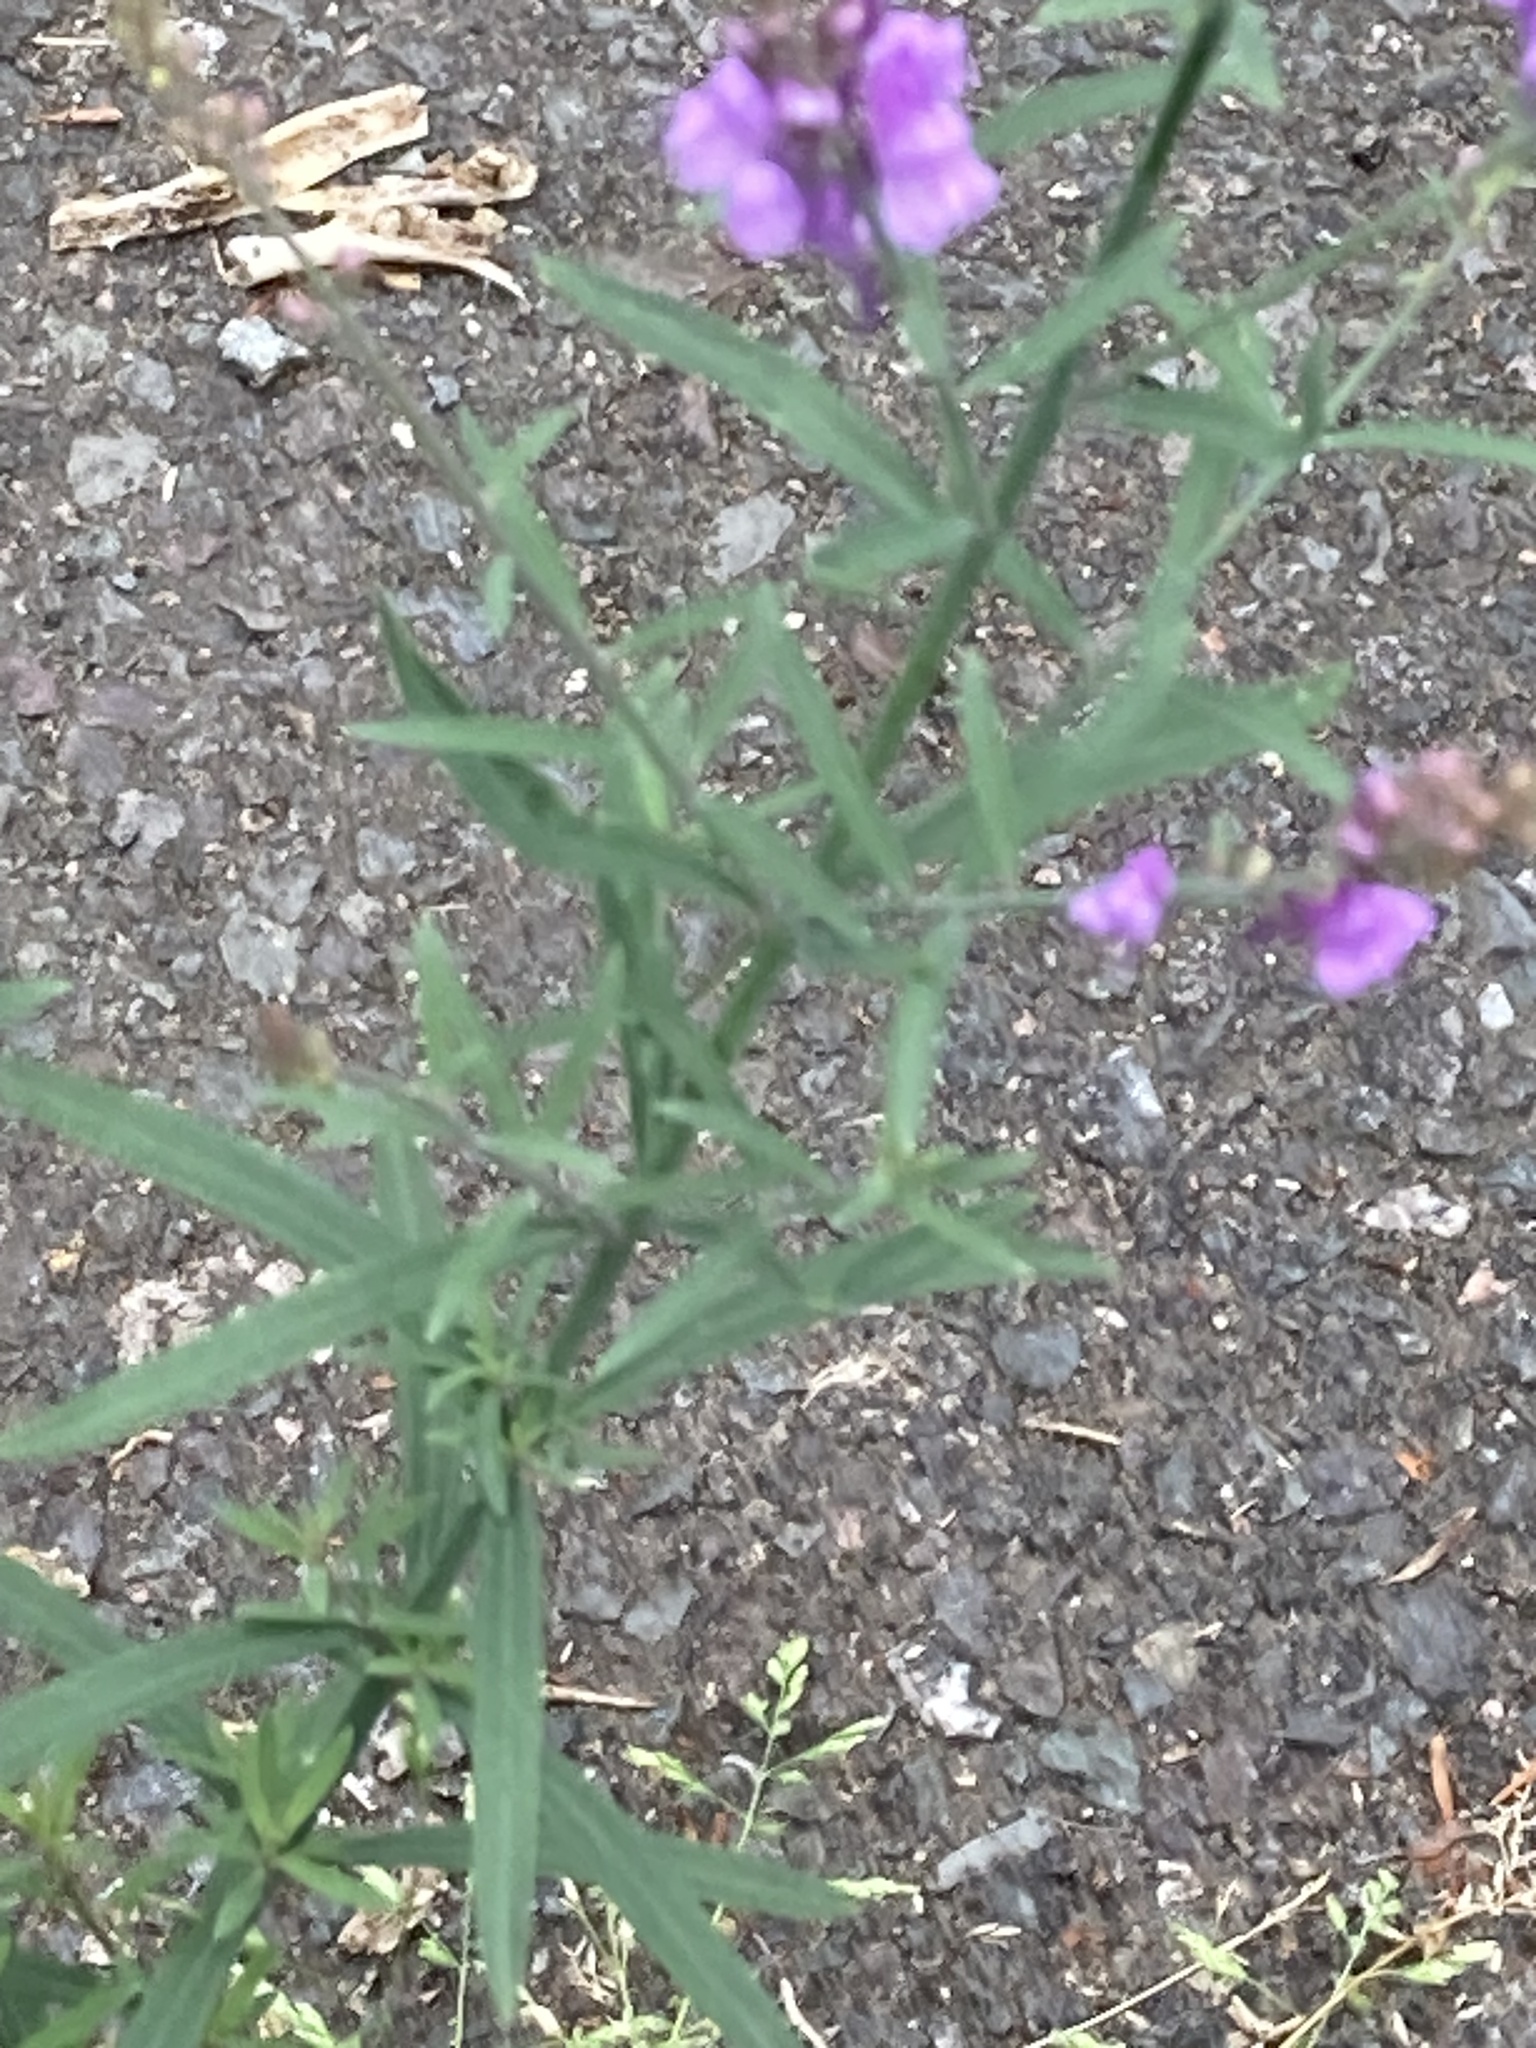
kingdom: Plantae
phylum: Tracheophyta
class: Magnoliopsida
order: Lamiales
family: Plantaginaceae
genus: Linaria
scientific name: Linaria purpurea
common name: Purple toadflax
